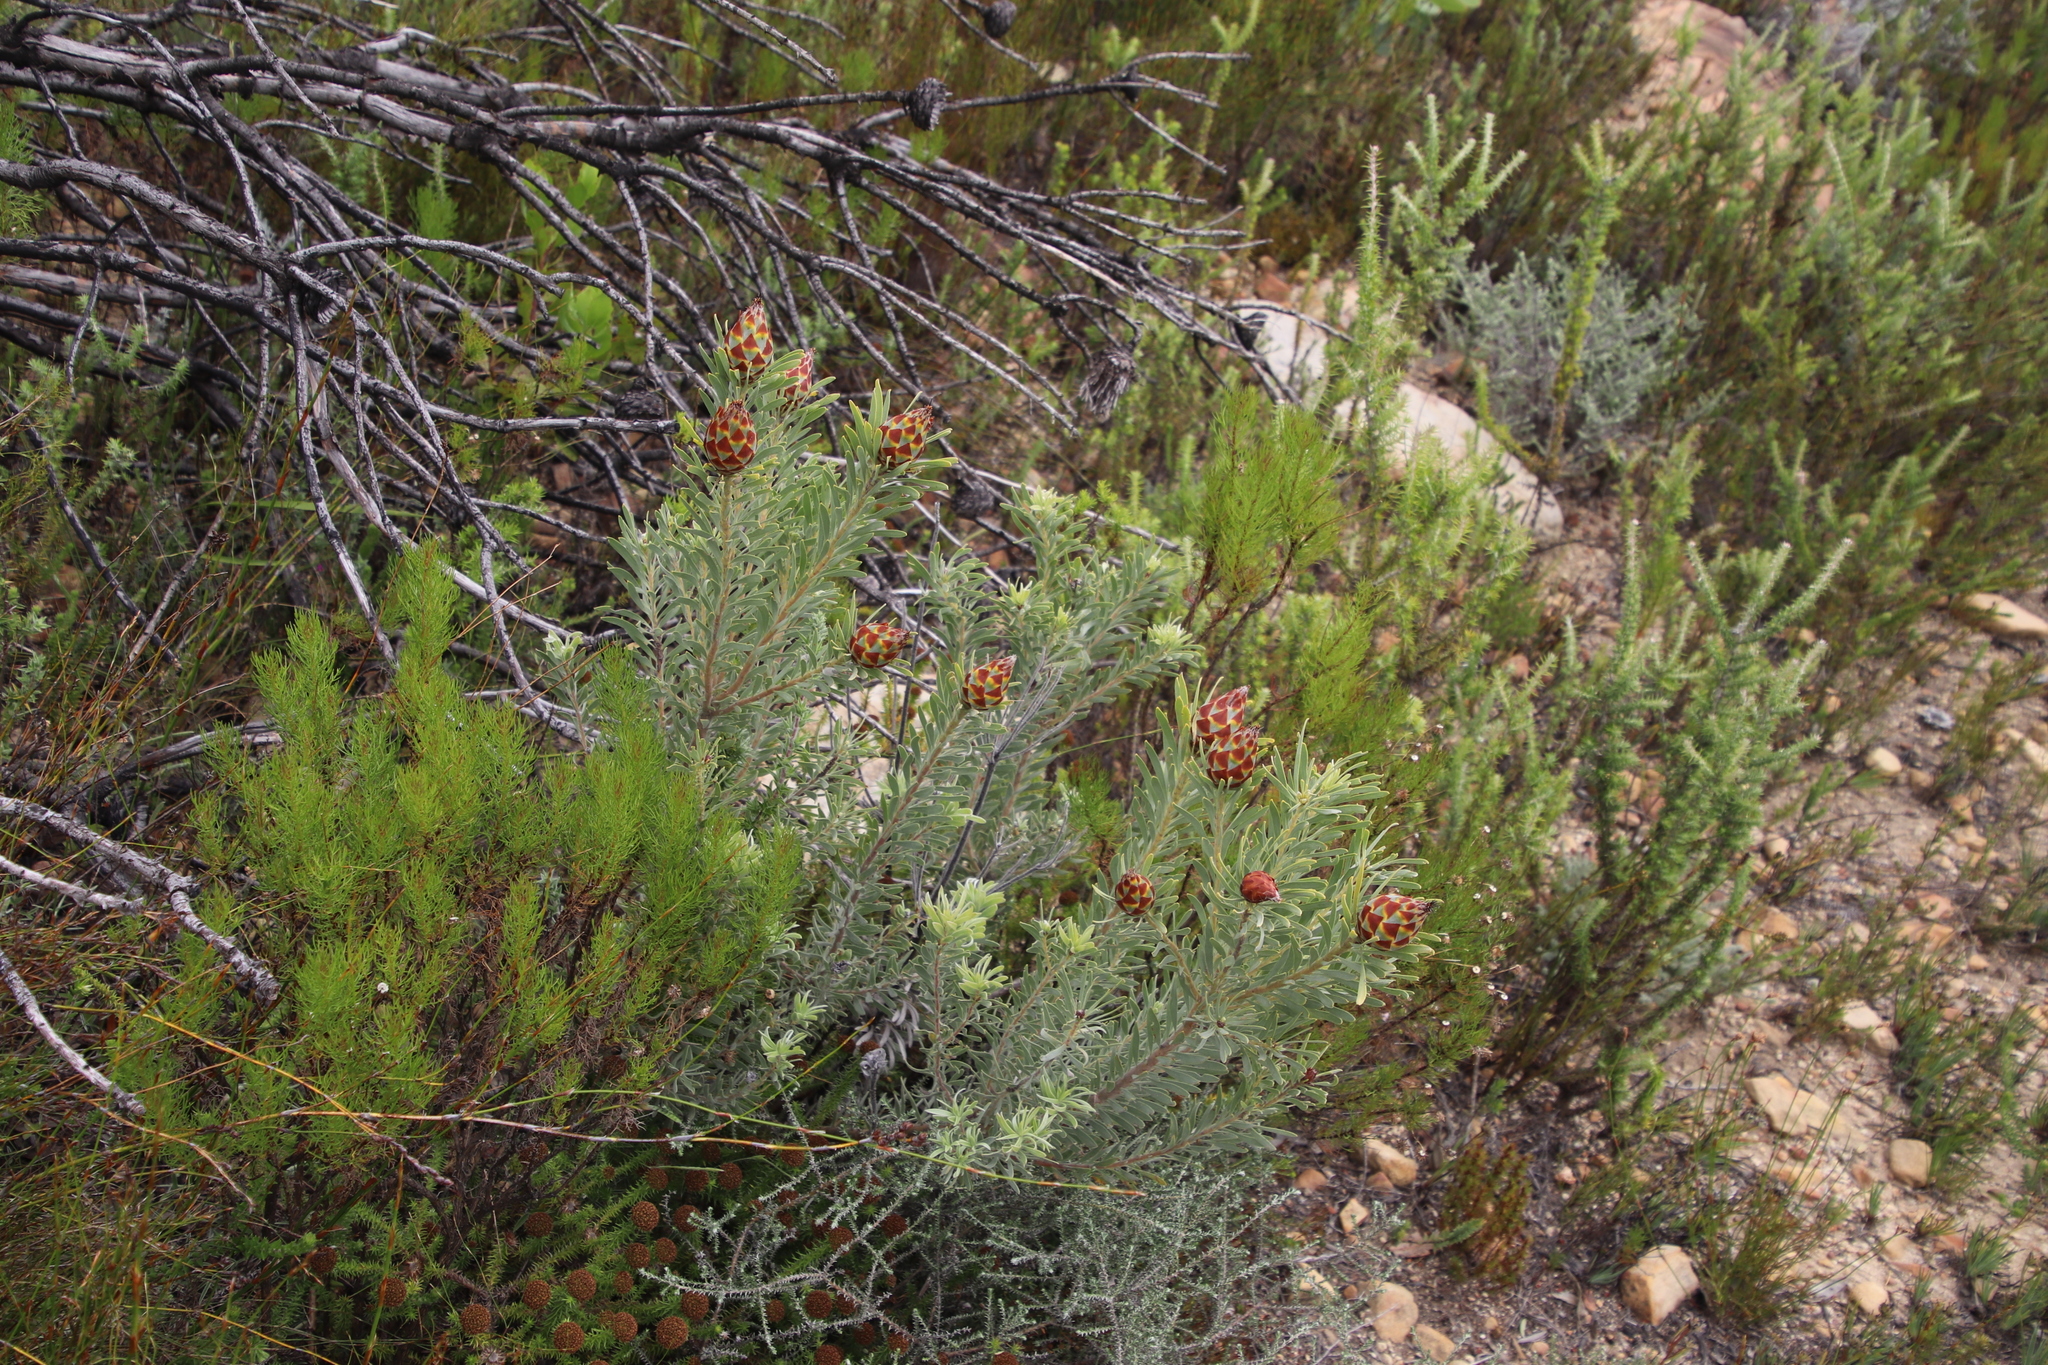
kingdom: Plantae
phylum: Tracheophyta
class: Magnoliopsida
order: Proteales
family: Proteaceae
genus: Leucadendron
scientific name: Leucadendron rubrum
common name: Spinning top
